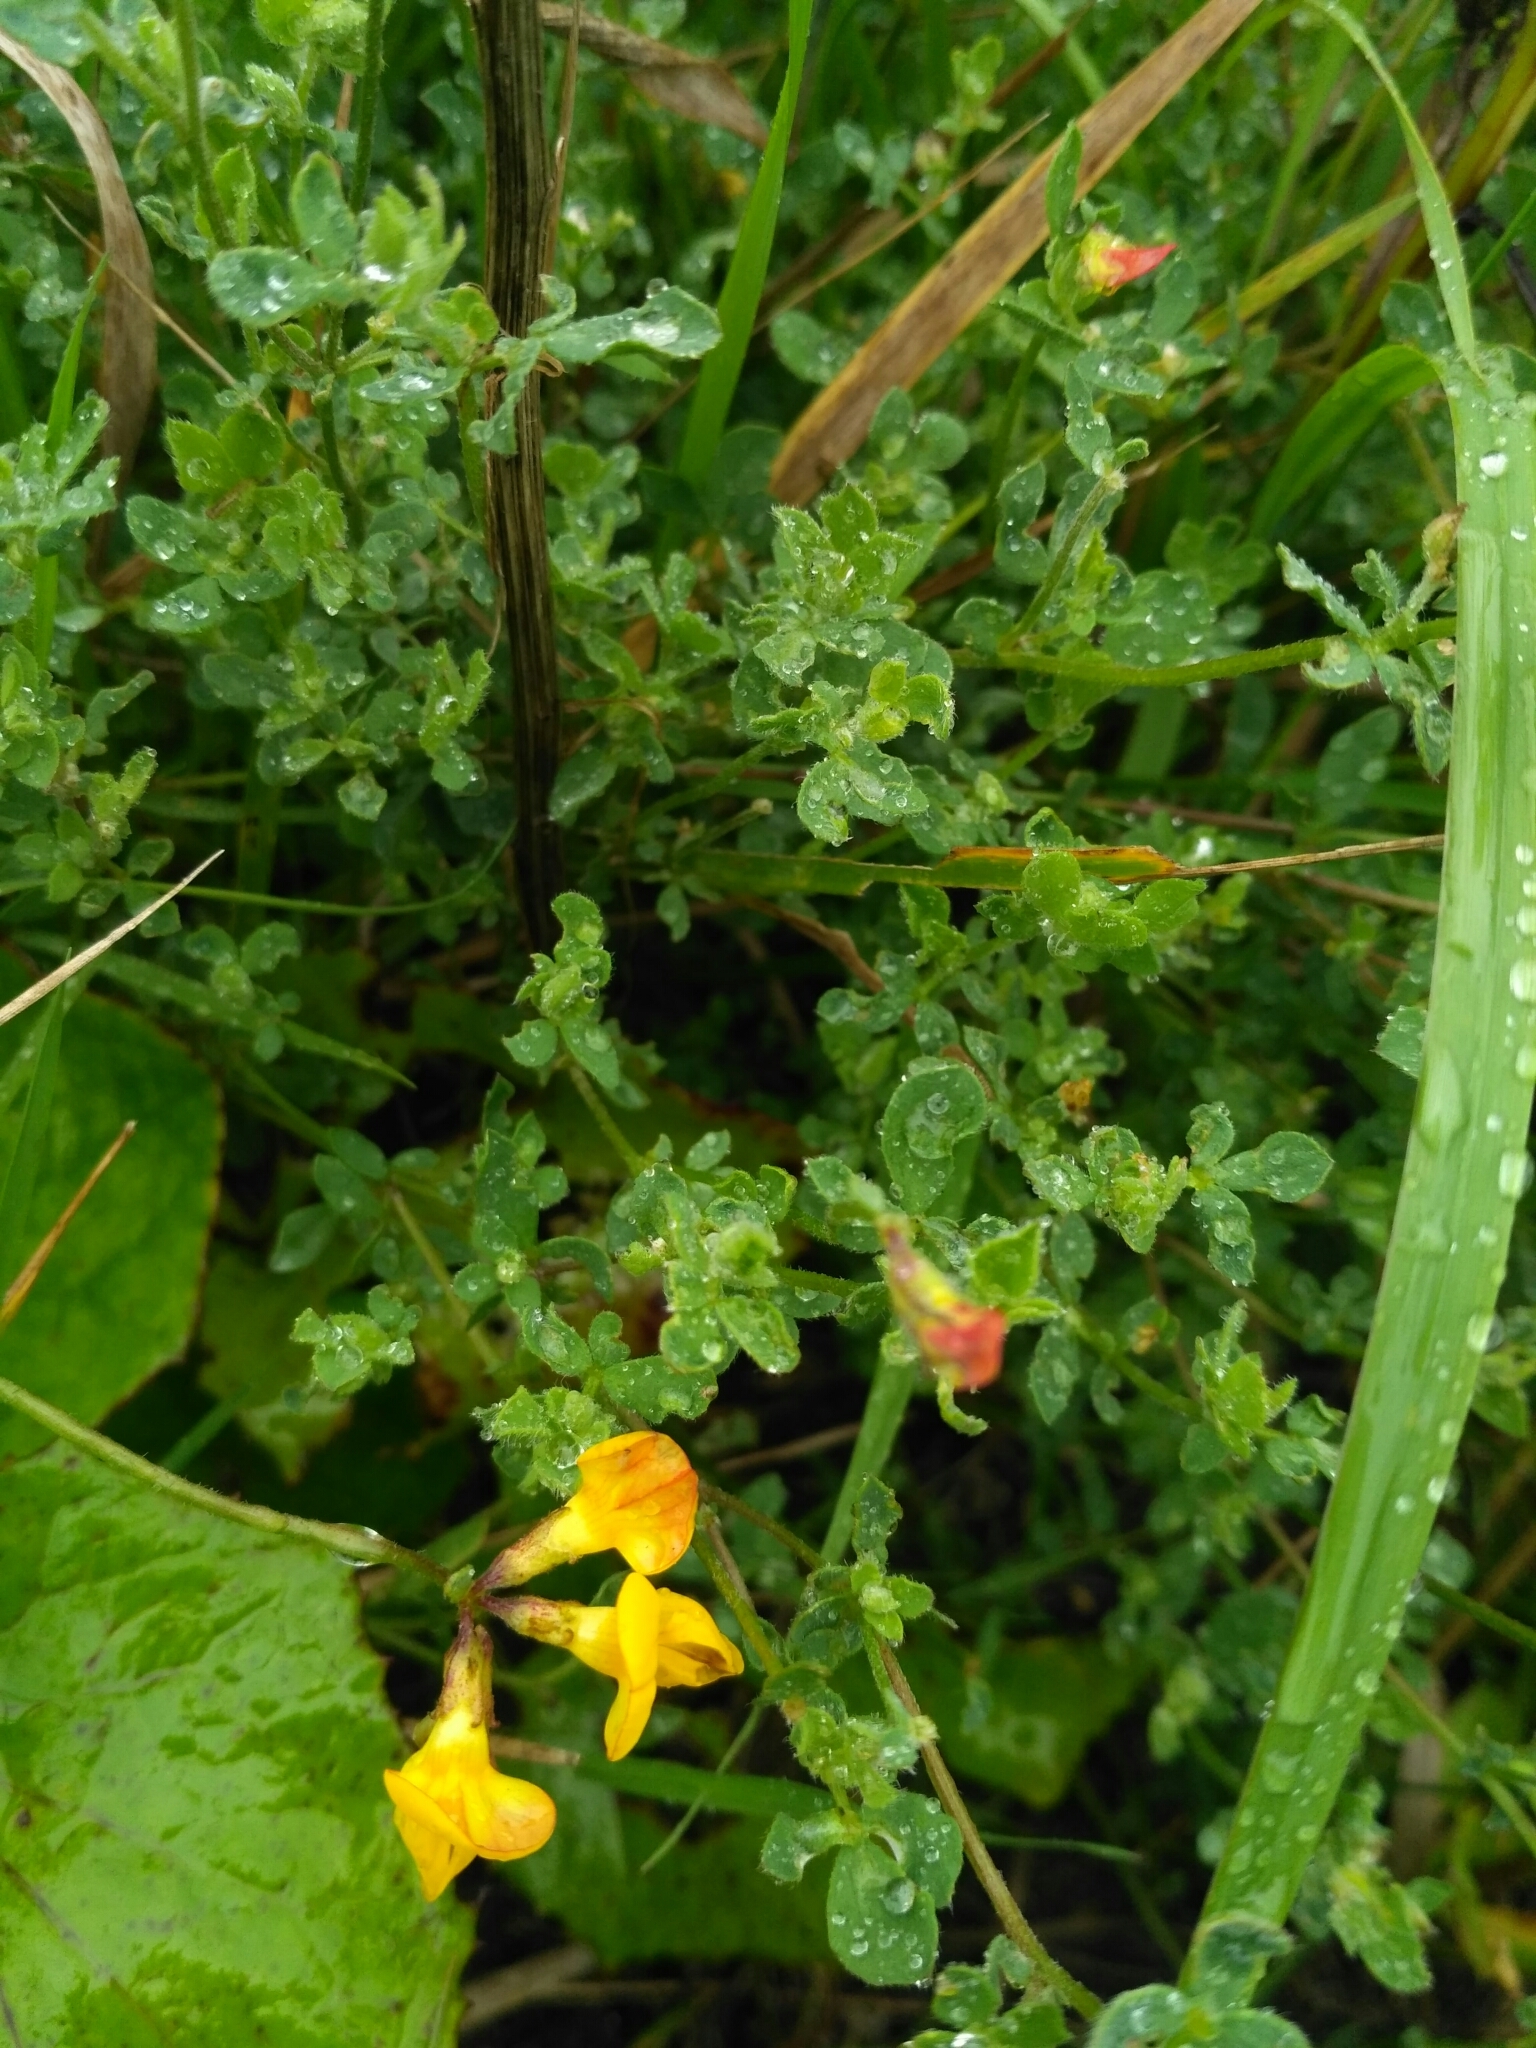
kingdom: Plantae
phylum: Tracheophyta
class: Magnoliopsida
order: Fabales
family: Fabaceae
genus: Lotus
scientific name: Lotus corniculatus
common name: Common bird's-foot-trefoil
